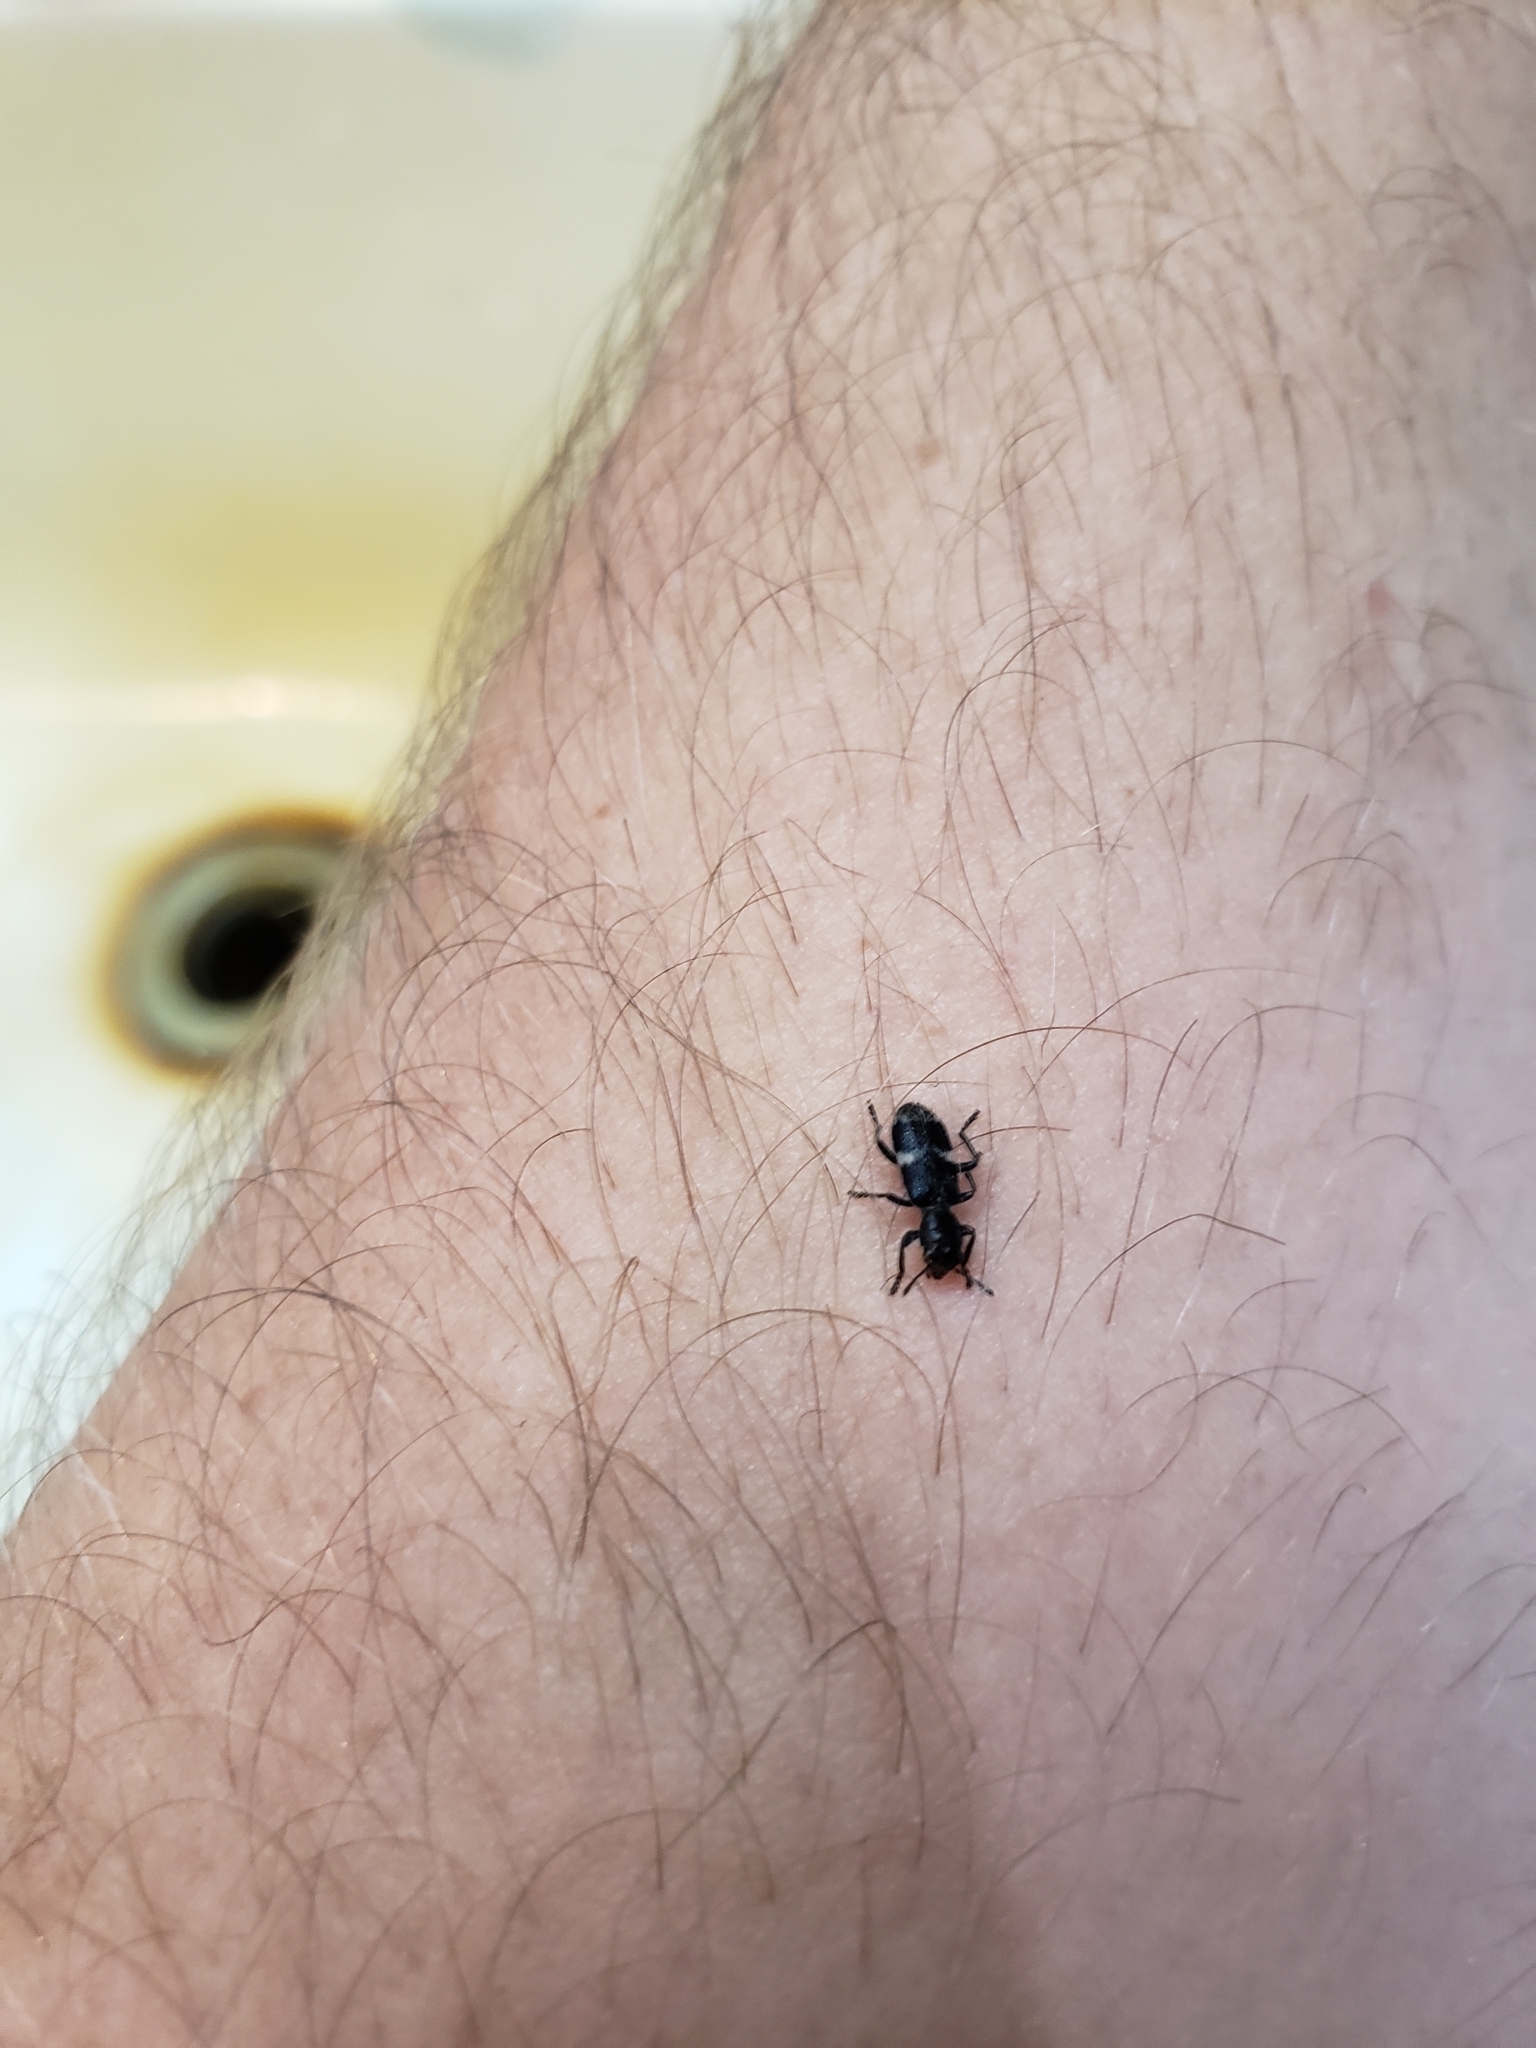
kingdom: Animalia
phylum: Arthropoda
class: Insecta
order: Coleoptera
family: Cleridae
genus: Enoclerus
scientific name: Enoclerus nigripes
